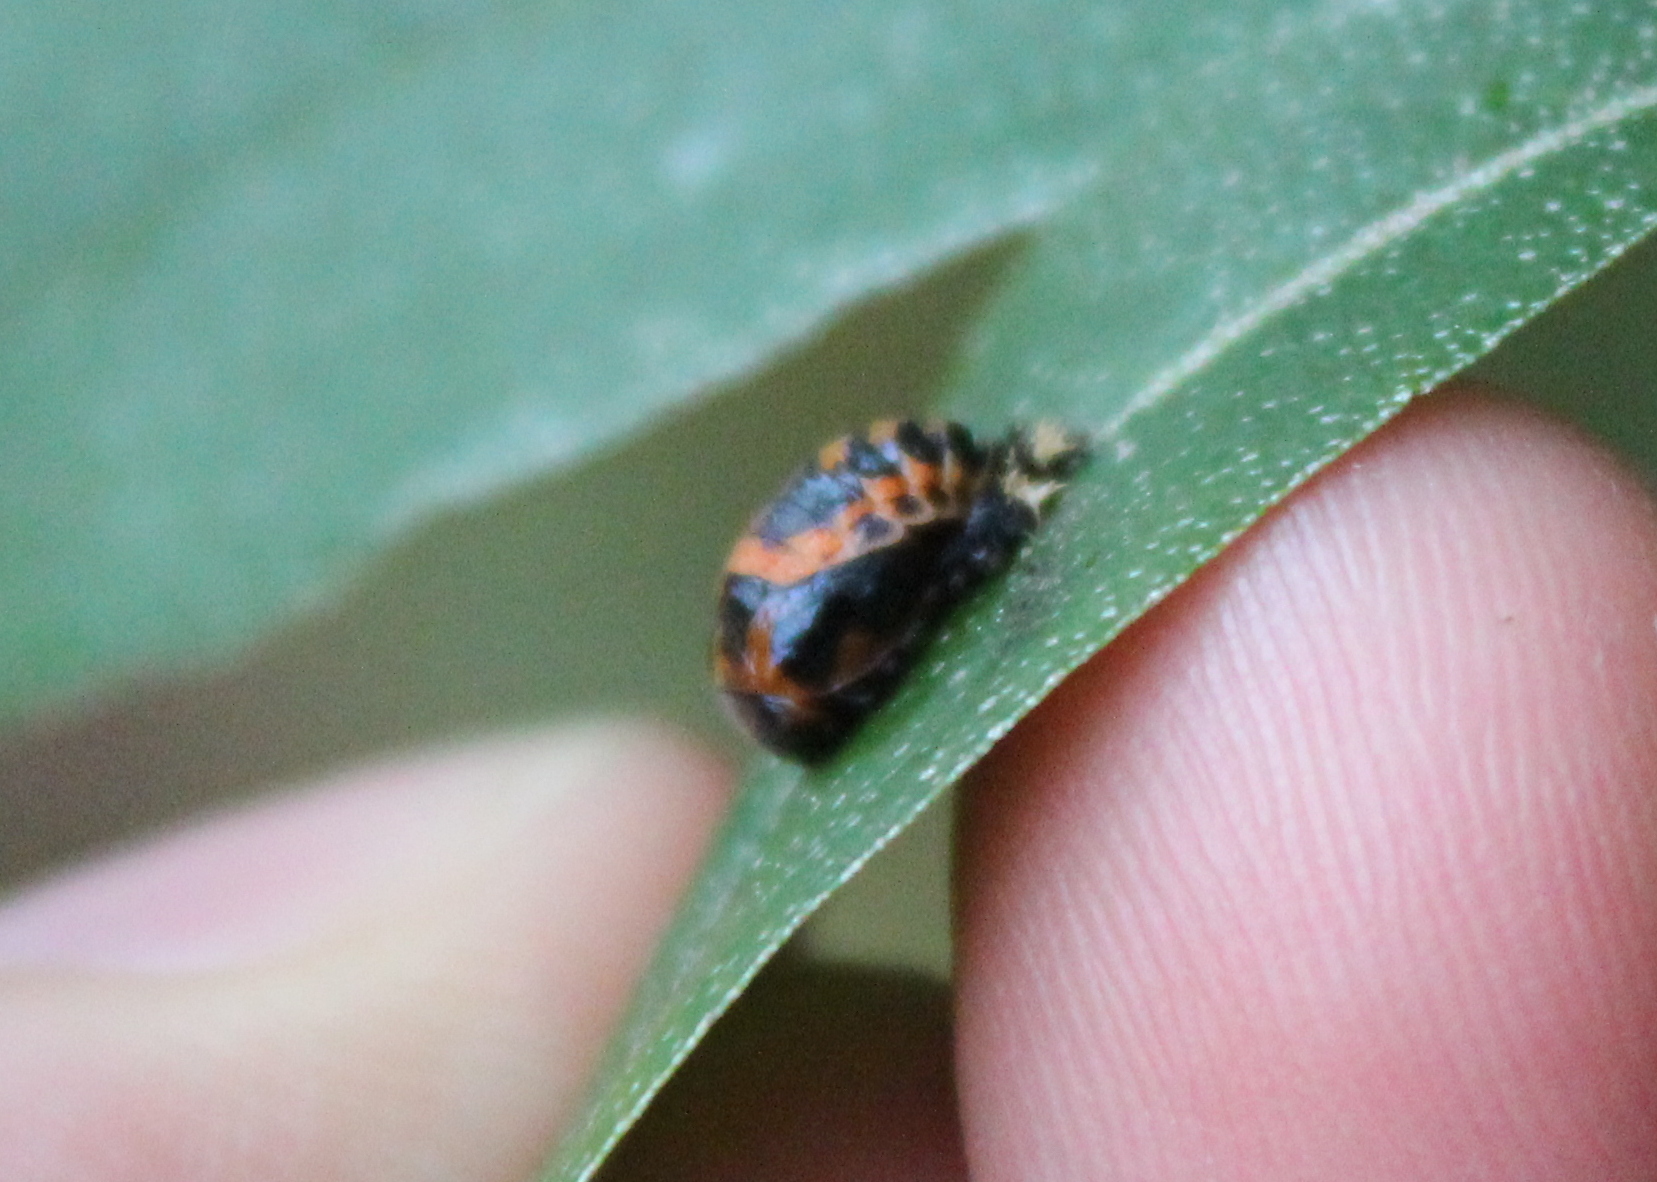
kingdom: Animalia
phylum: Arthropoda
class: Insecta
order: Coleoptera
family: Coccinellidae
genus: Harmonia
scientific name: Harmonia axyridis
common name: Harlequin ladybird
